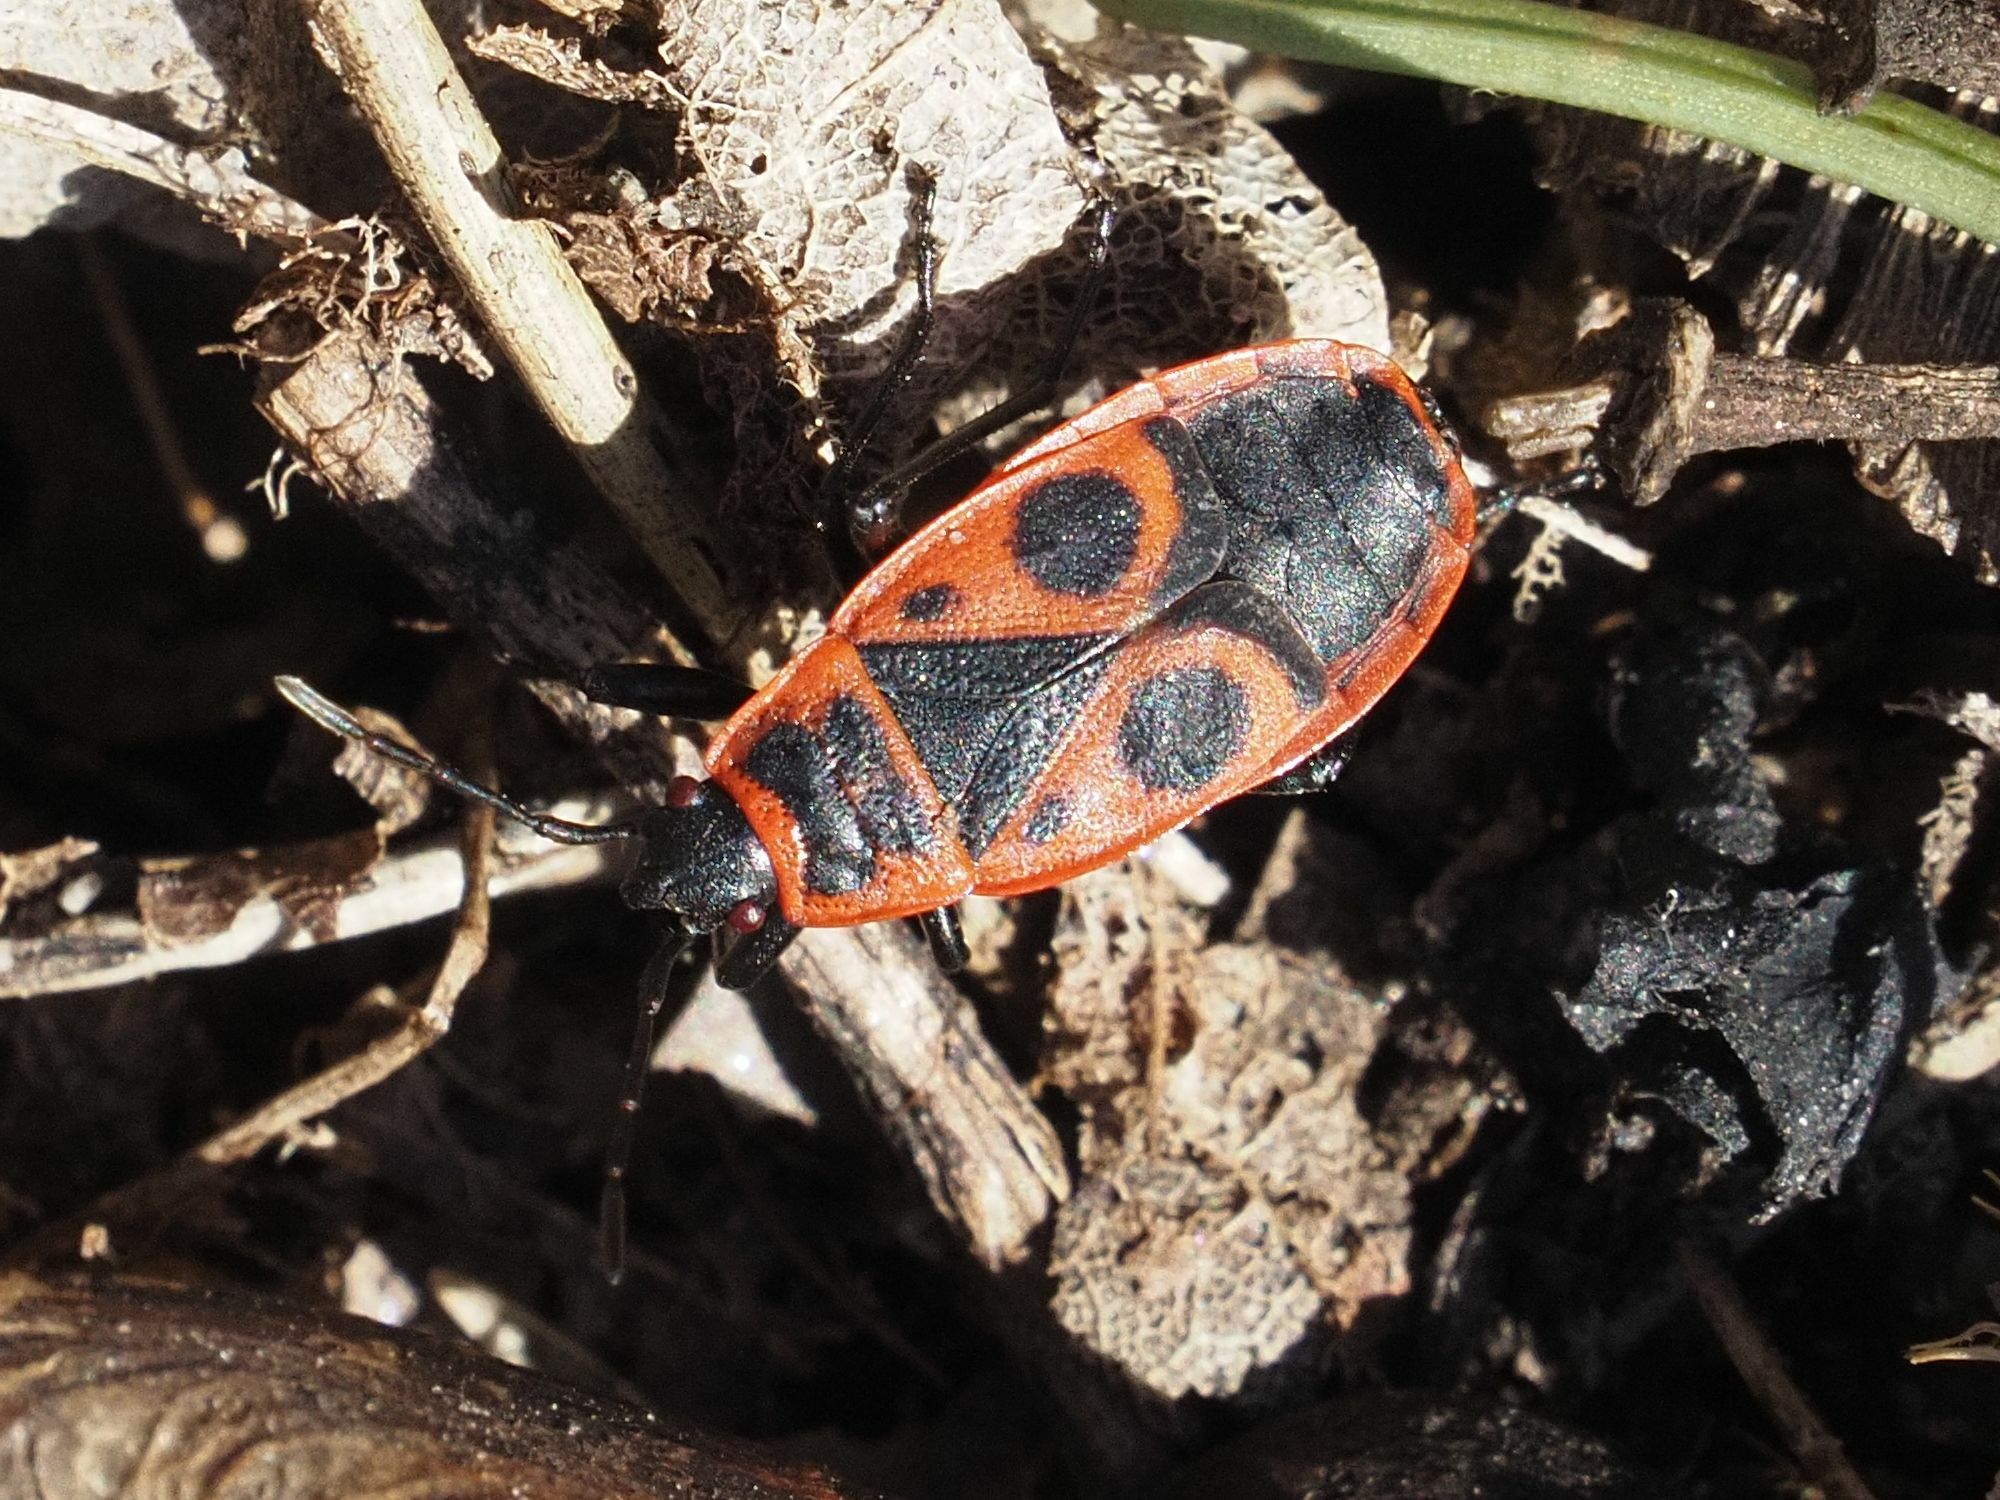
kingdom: Animalia
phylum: Arthropoda
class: Insecta
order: Hemiptera
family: Pyrrhocoridae
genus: Pyrrhocoris
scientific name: Pyrrhocoris apterus
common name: Firebug
